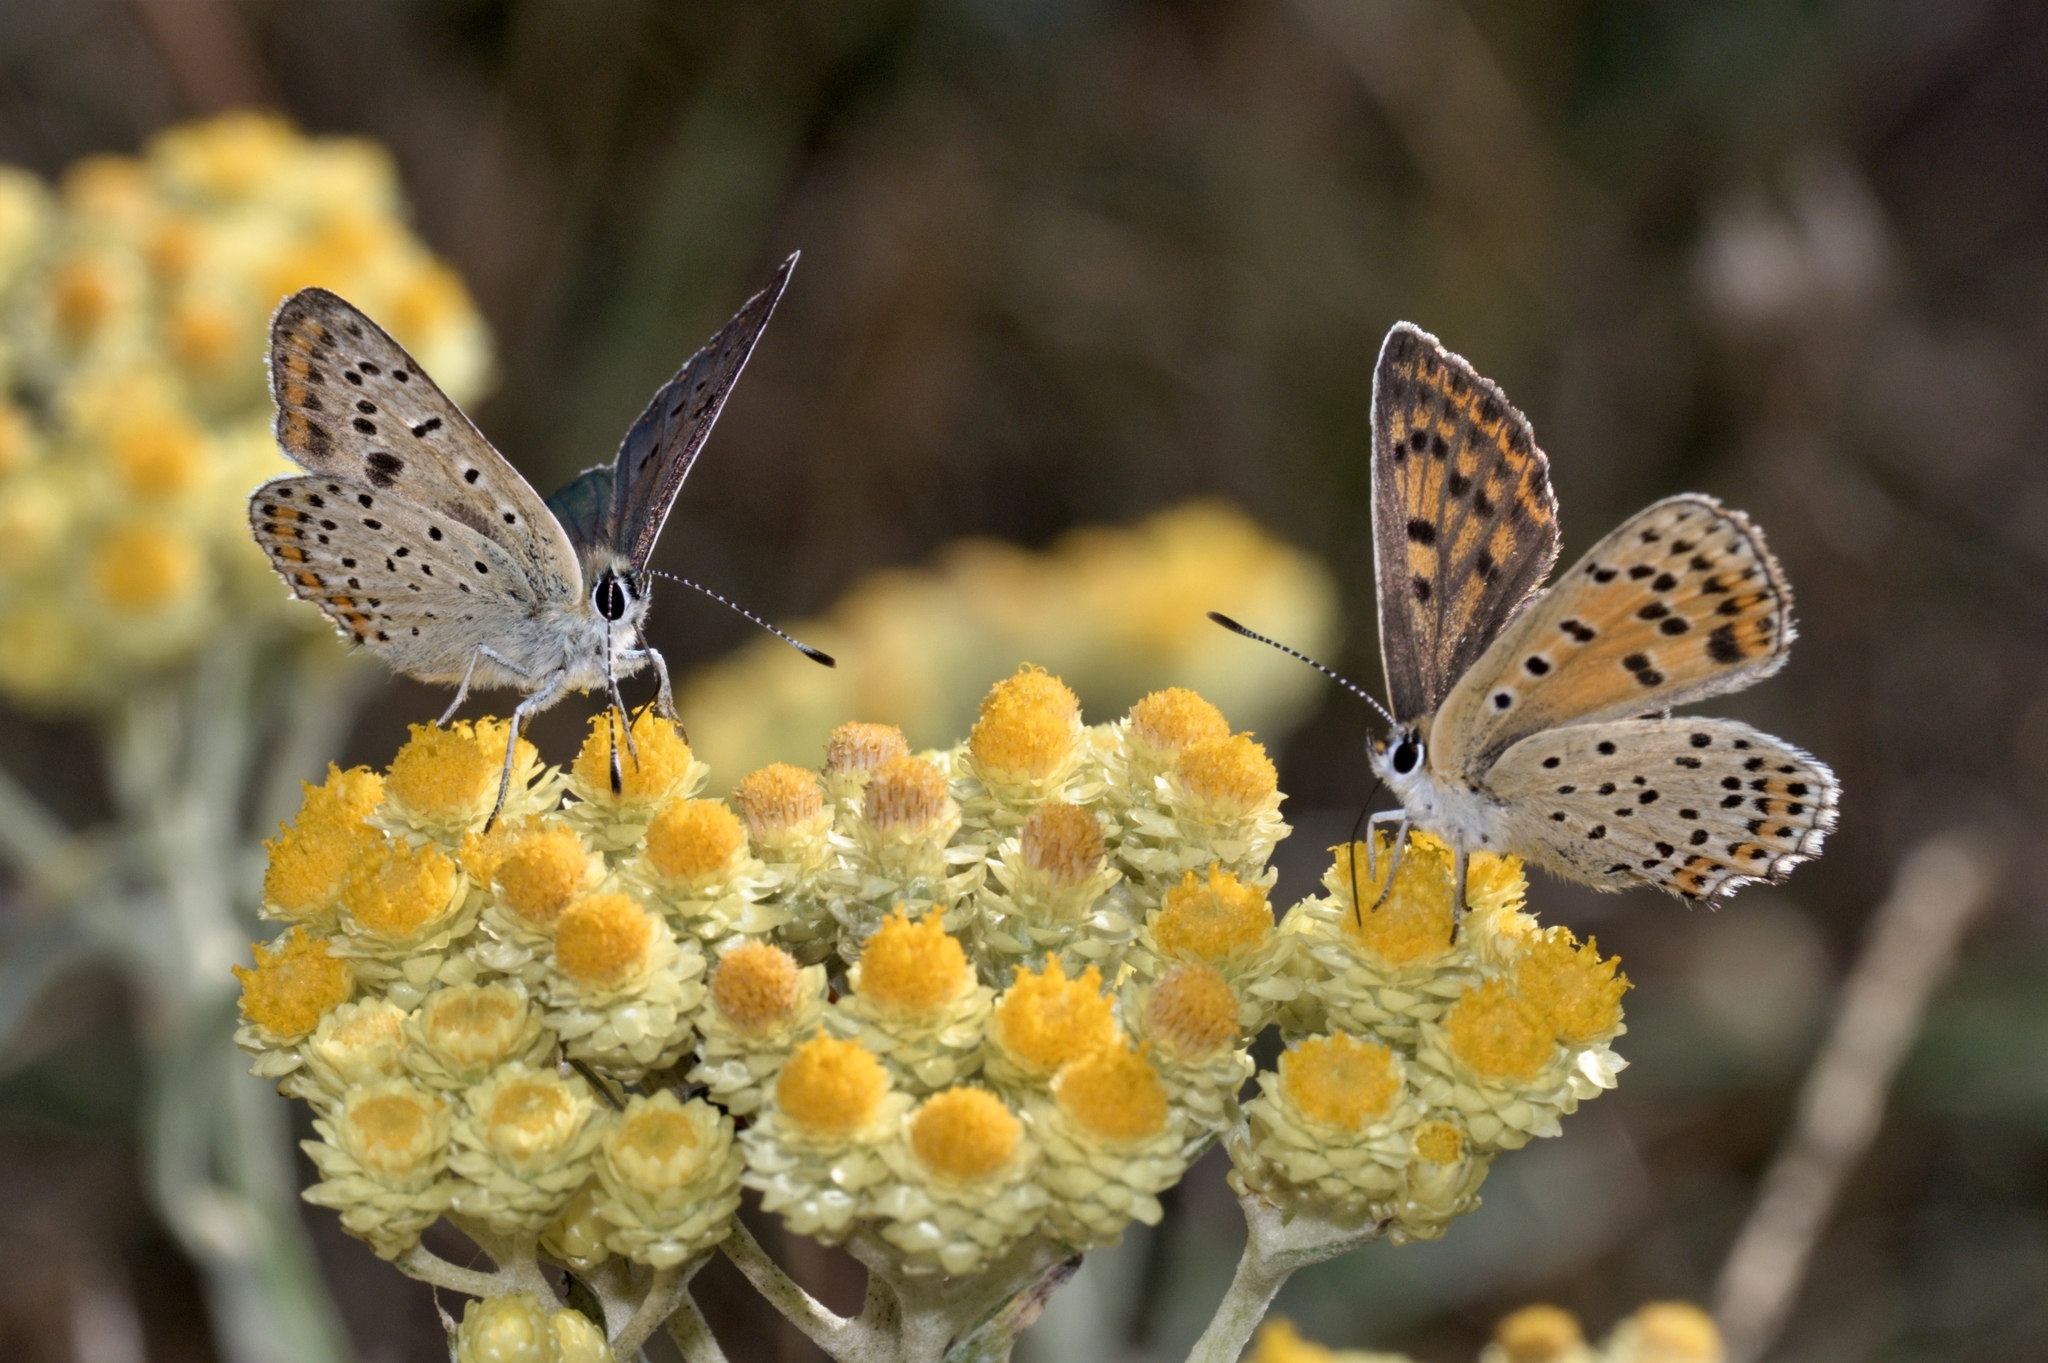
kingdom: Animalia
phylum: Arthropoda
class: Insecta
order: Lepidoptera
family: Lycaenidae
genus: Loweia
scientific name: Loweia tityrus
